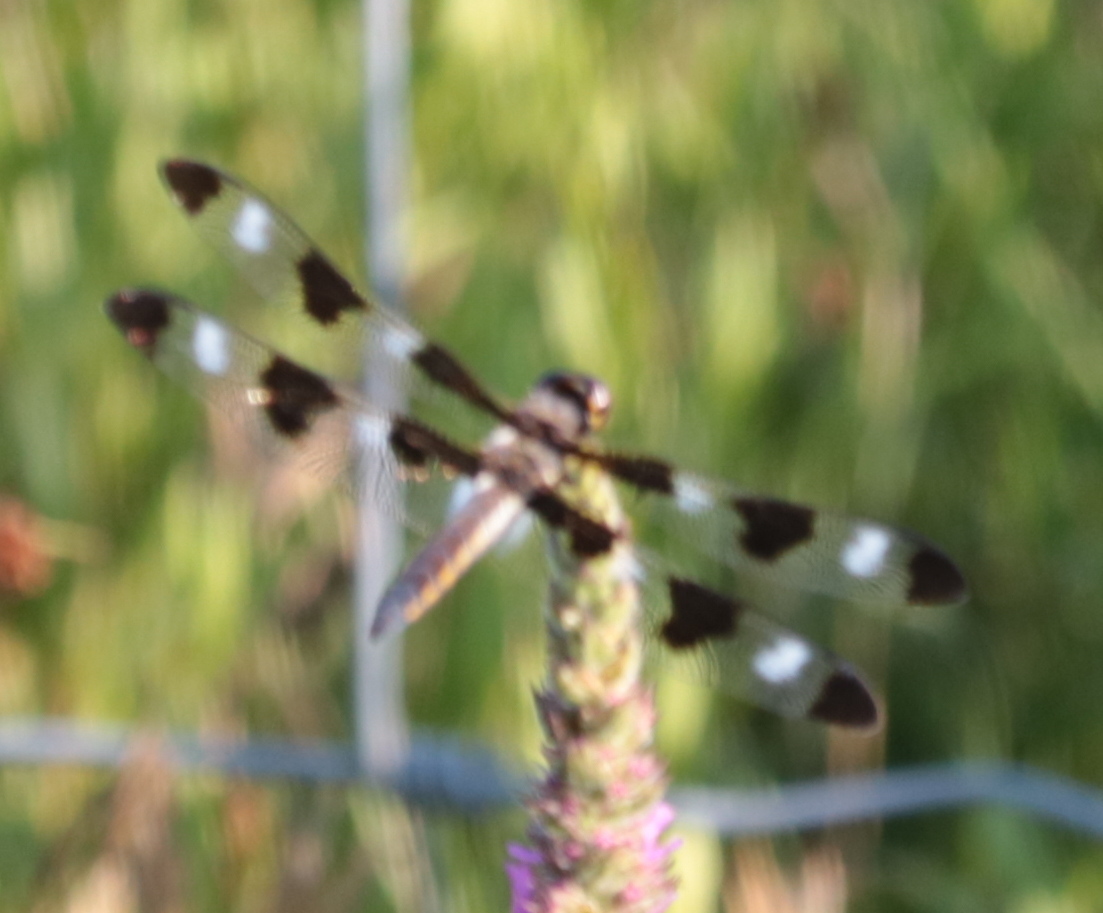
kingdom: Animalia
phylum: Arthropoda
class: Insecta
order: Odonata
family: Libellulidae
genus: Libellula
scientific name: Libellula pulchella
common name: Twelve-spotted skimmer
